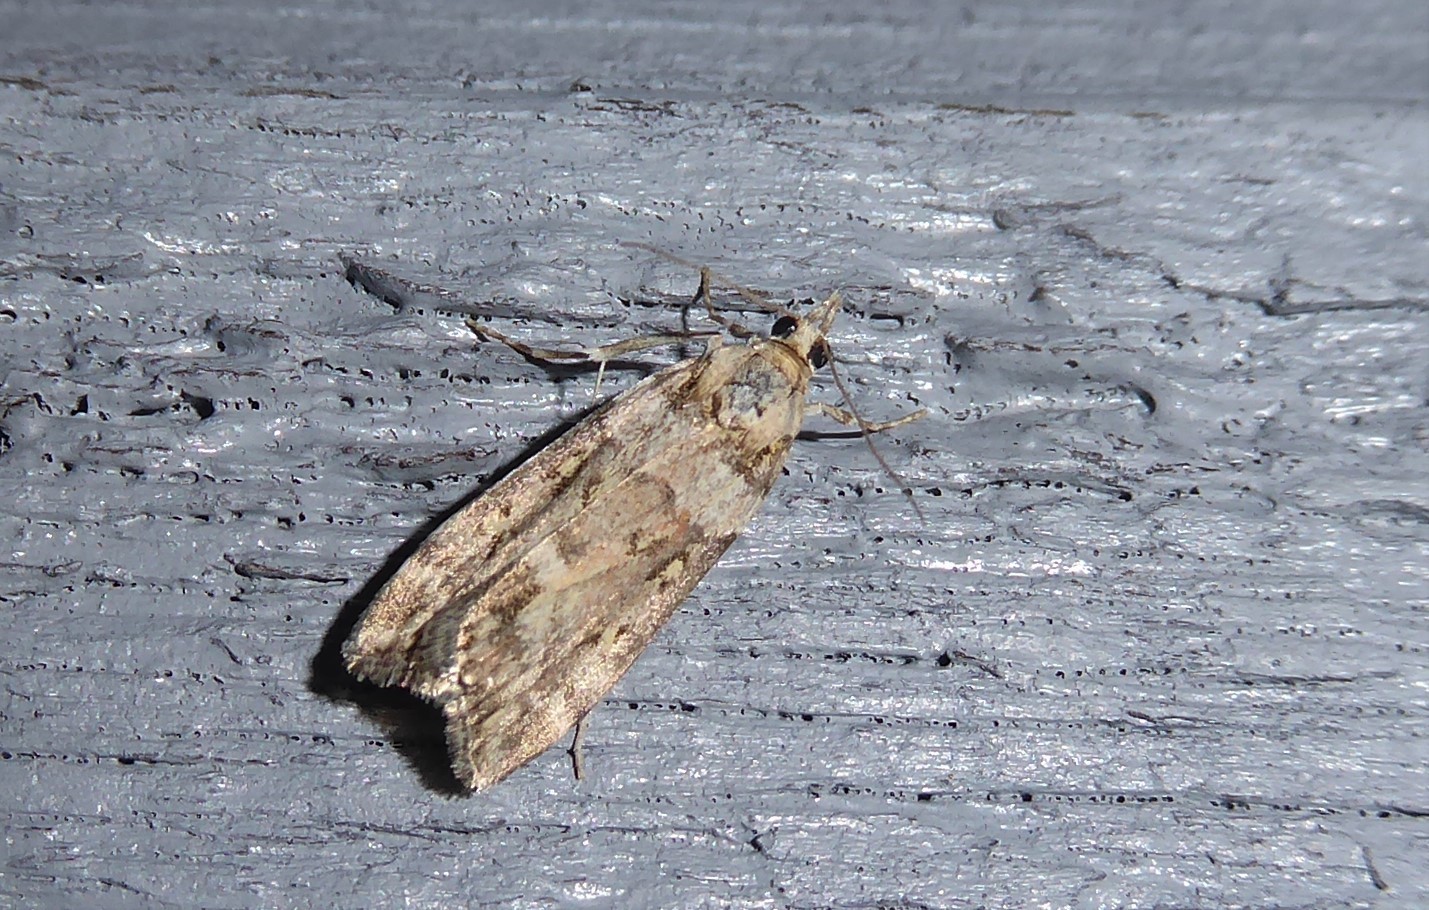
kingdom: Animalia
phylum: Arthropoda
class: Insecta
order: Lepidoptera
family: Crambidae
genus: Scoparia
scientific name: Scoparia tetracycla
